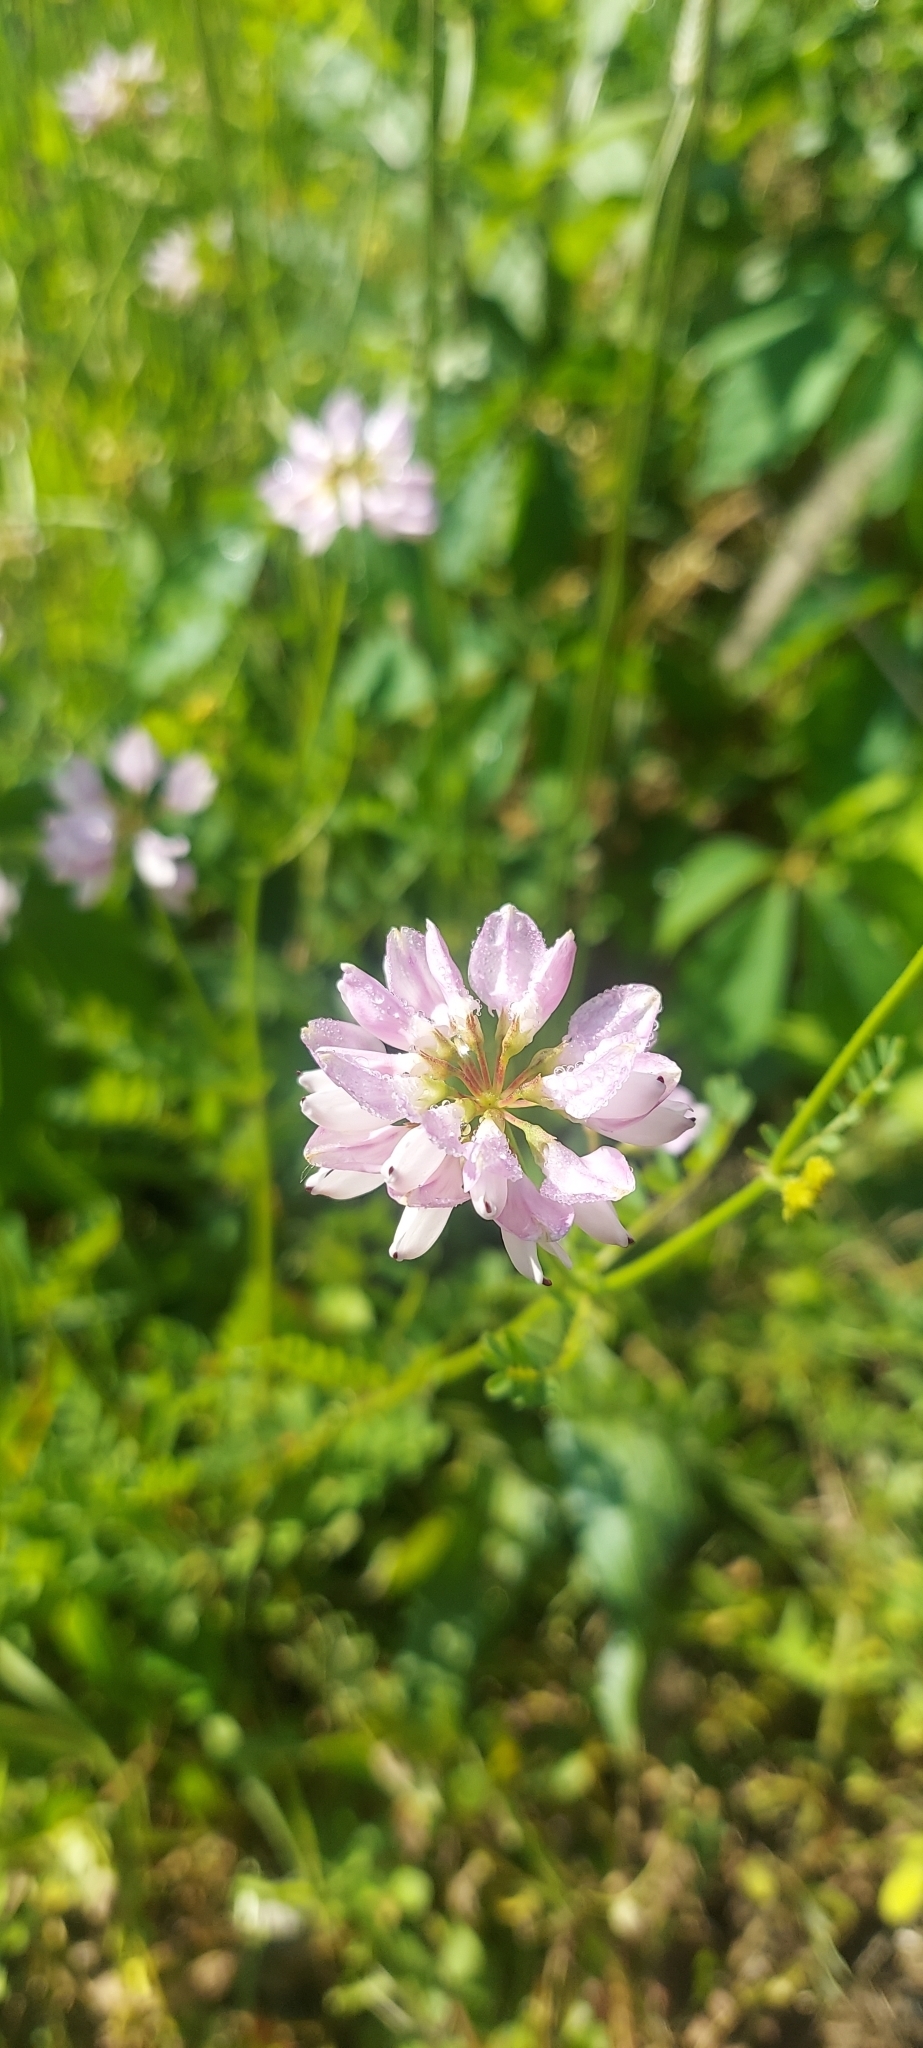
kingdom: Plantae
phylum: Tracheophyta
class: Magnoliopsida
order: Fabales
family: Fabaceae
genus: Coronilla
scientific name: Coronilla varia
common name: Crownvetch
